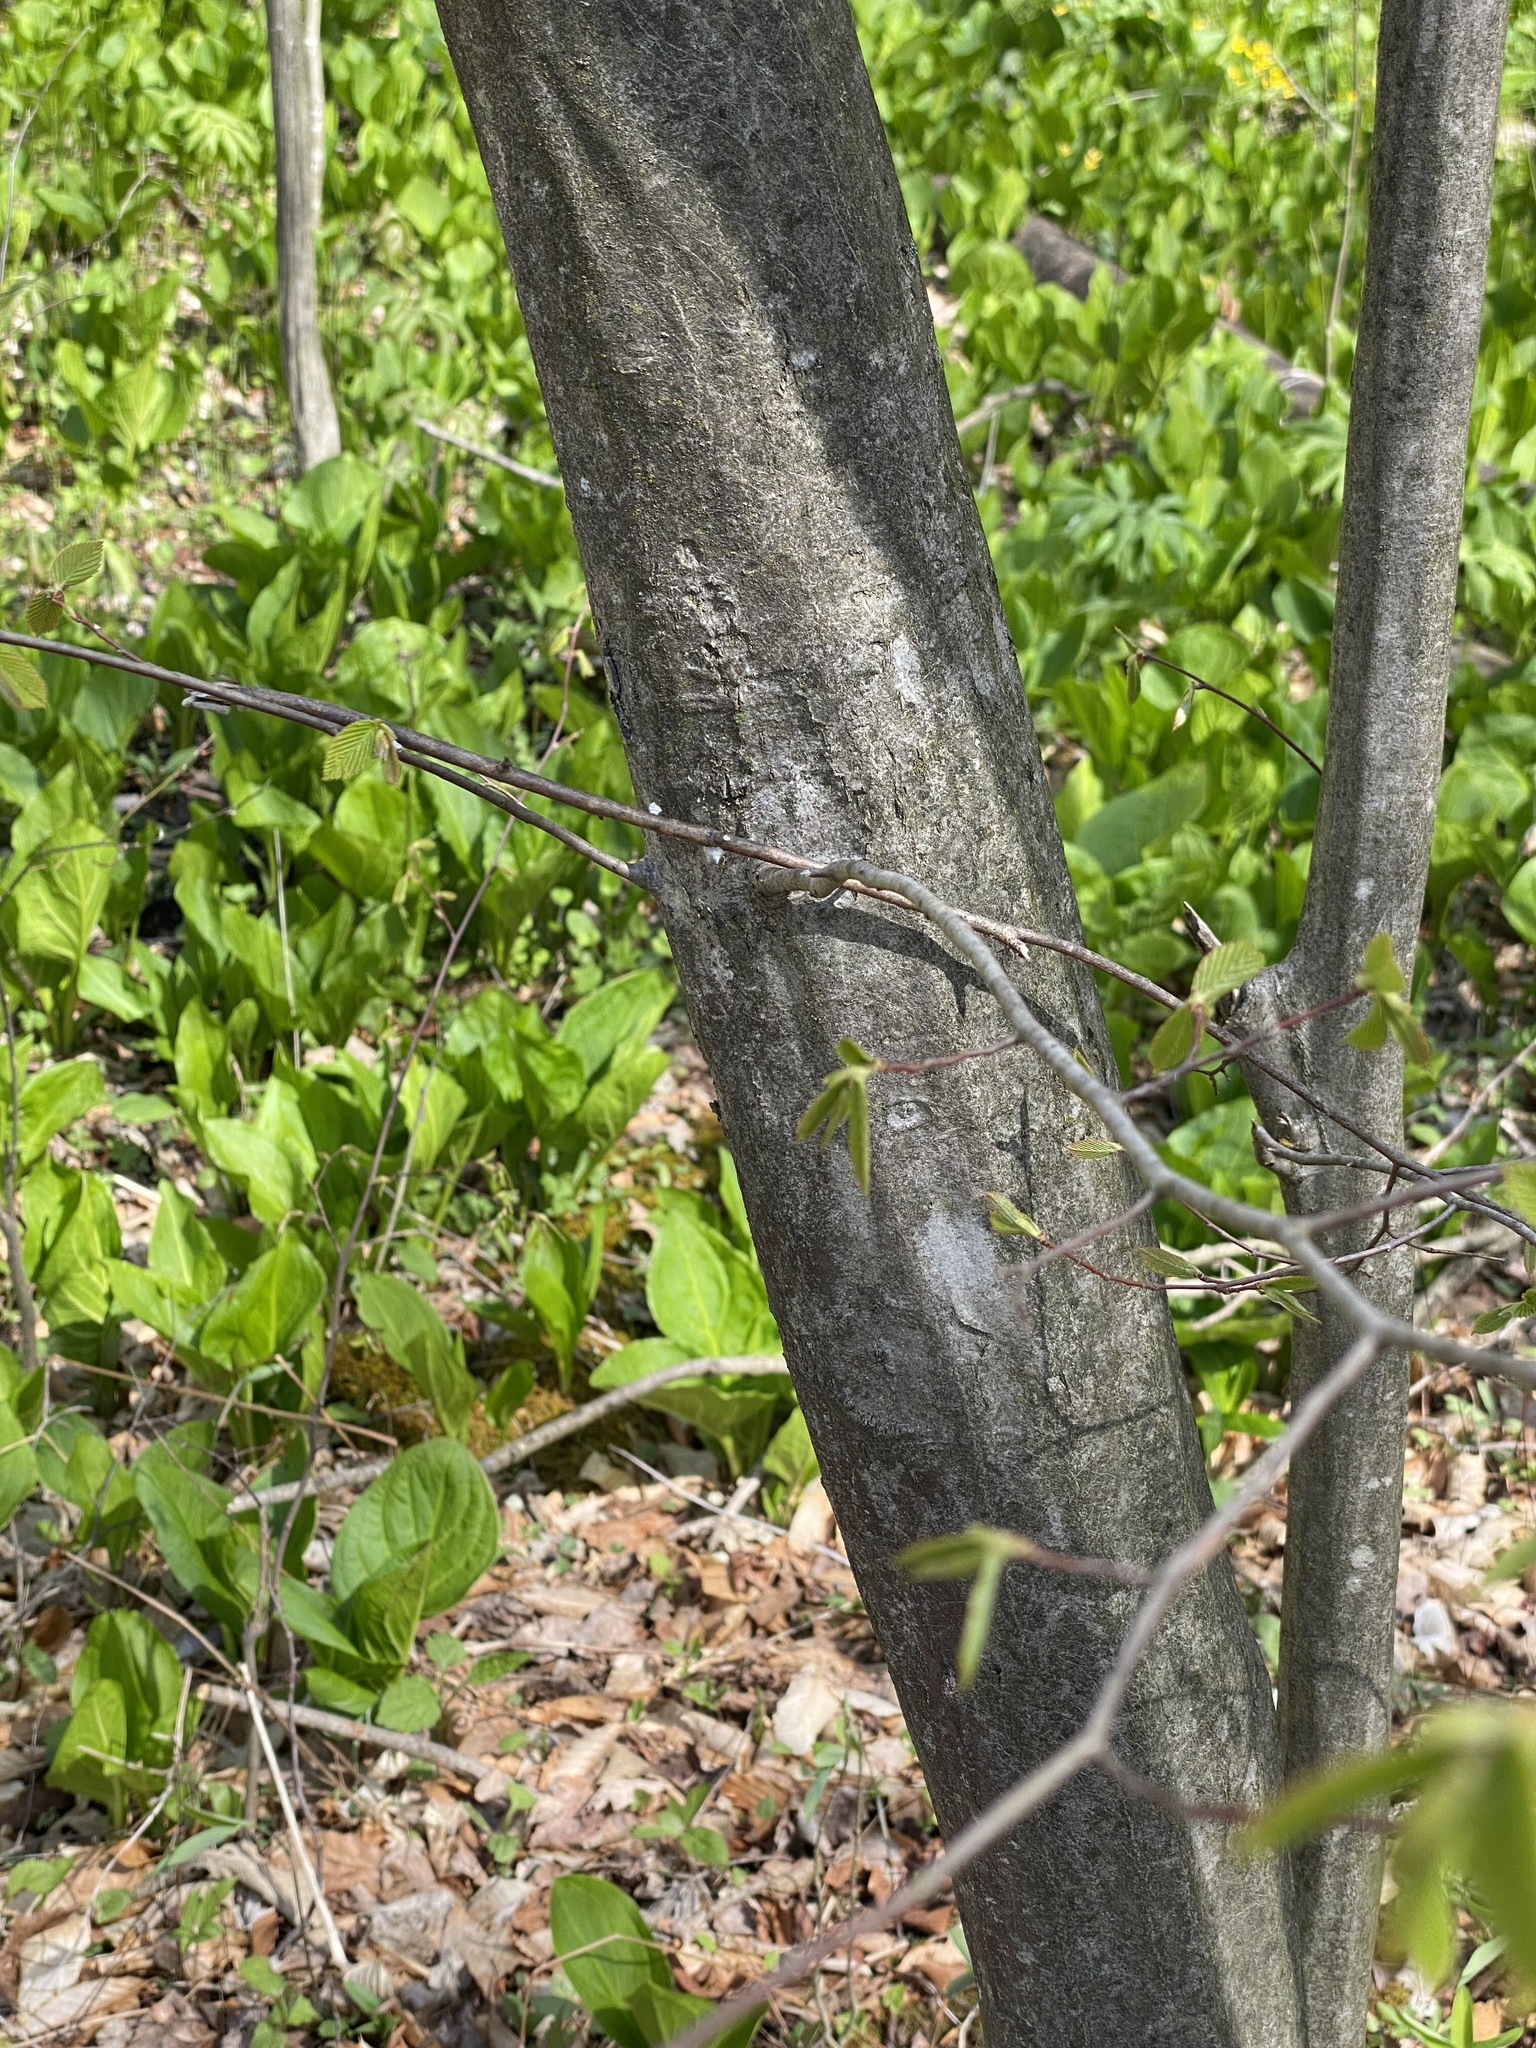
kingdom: Plantae
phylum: Tracheophyta
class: Magnoliopsida
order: Fagales
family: Betulaceae
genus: Carpinus
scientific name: Carpinus caroliniana
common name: American hornbeam
